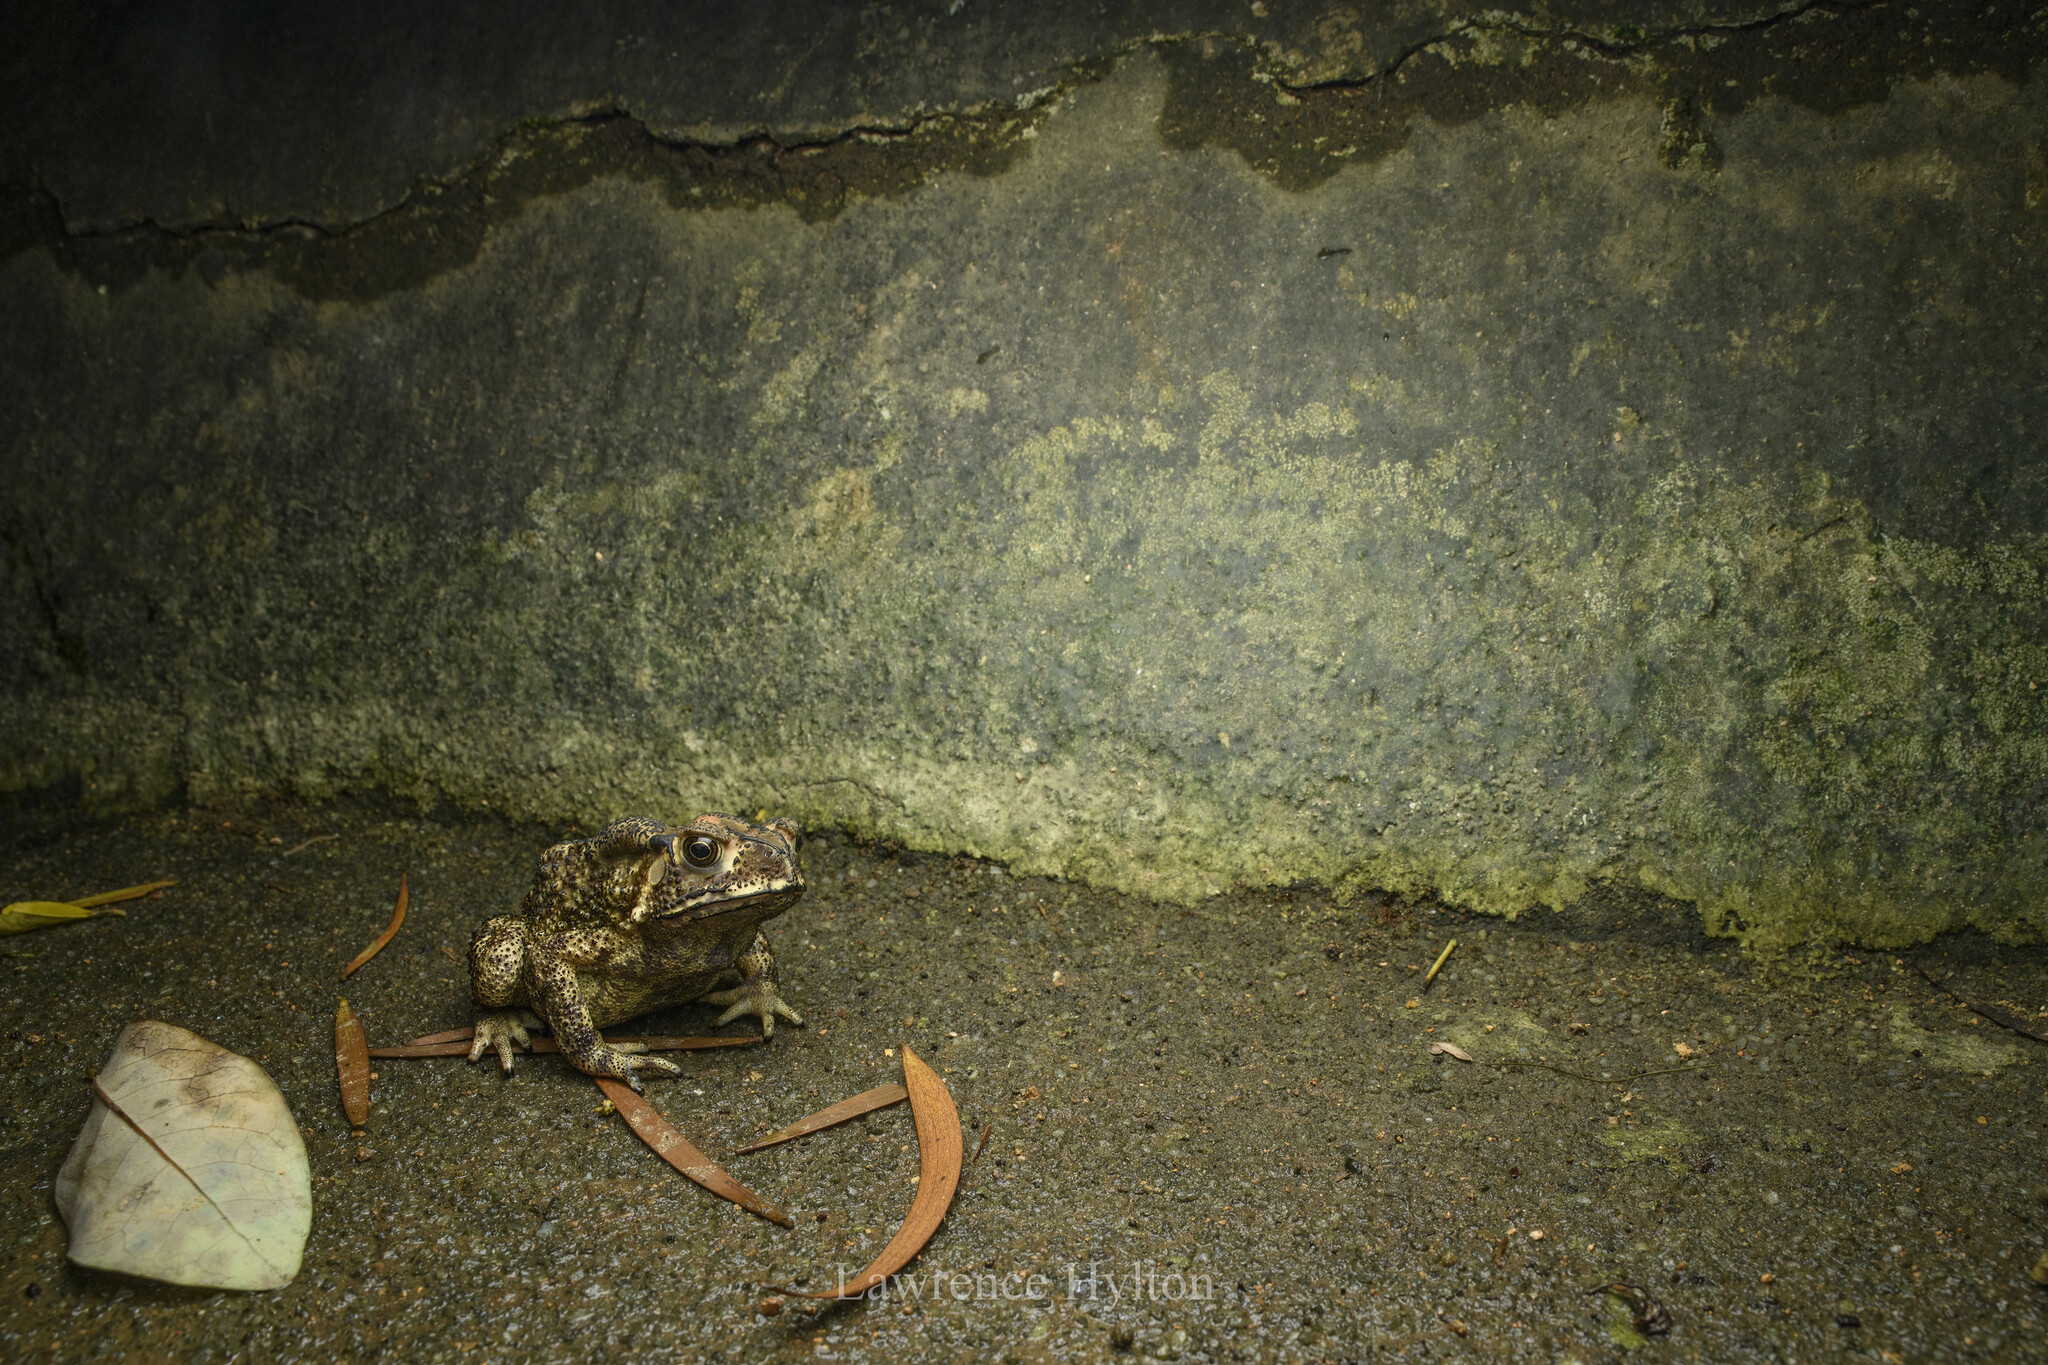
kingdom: Animalia
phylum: Chordata
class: Amphibia
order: Anura
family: Bufonidae
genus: Duttaphrynus
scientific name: Duttaphrynus melanostictus
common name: Common sunda toad
